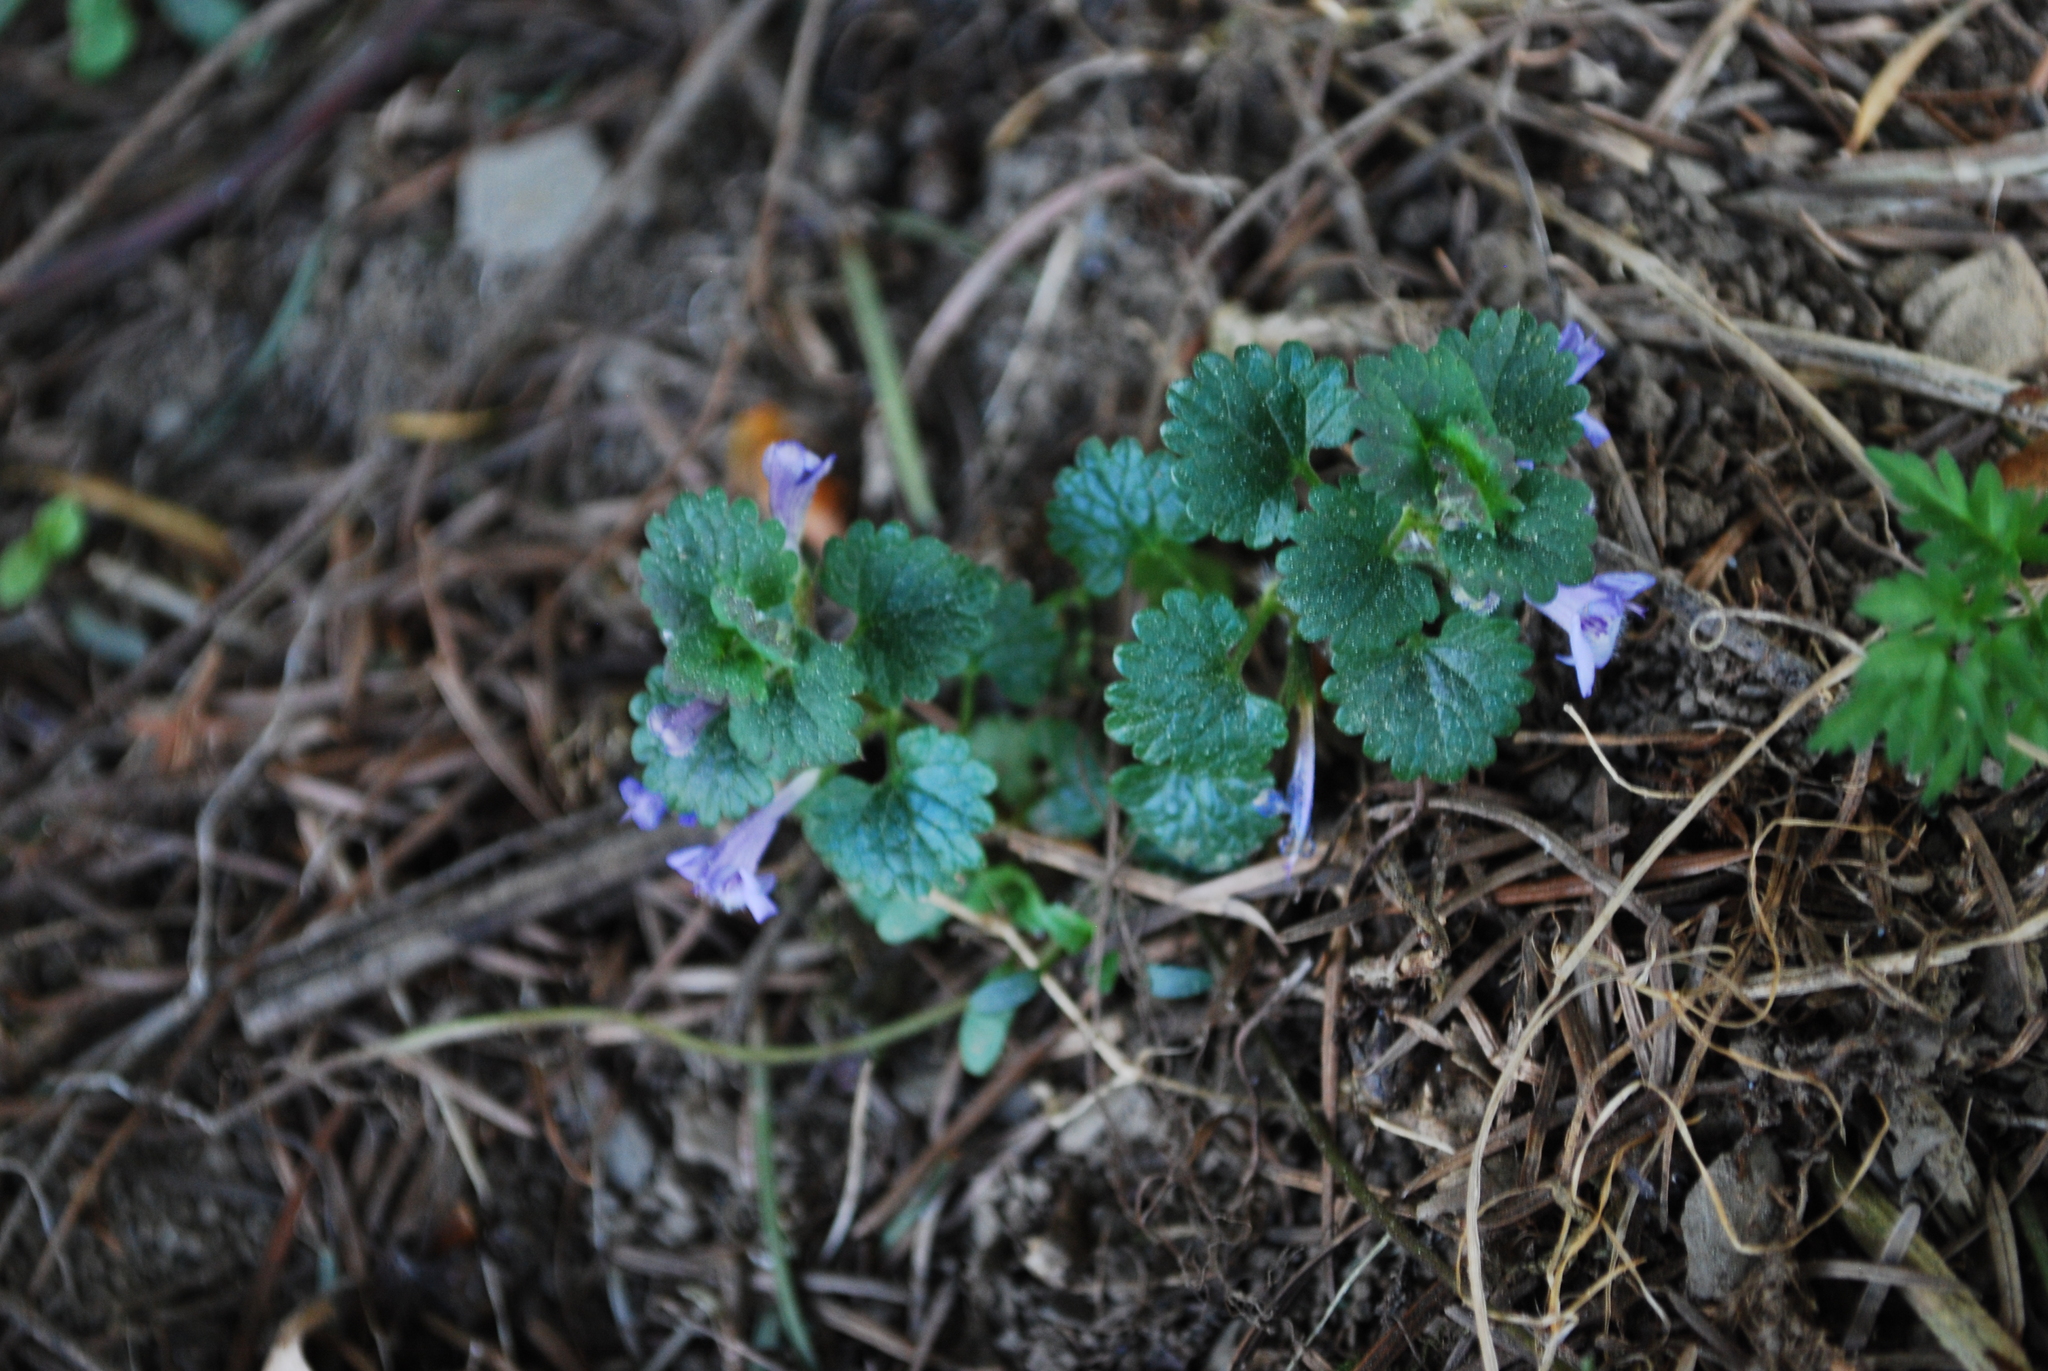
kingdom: Plantae
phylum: Tracheophyta
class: Magnoliopsida
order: Lamiales
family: Lamiaceae
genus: Glechoma
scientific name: Glechoma hederacea
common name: Ground ivy
